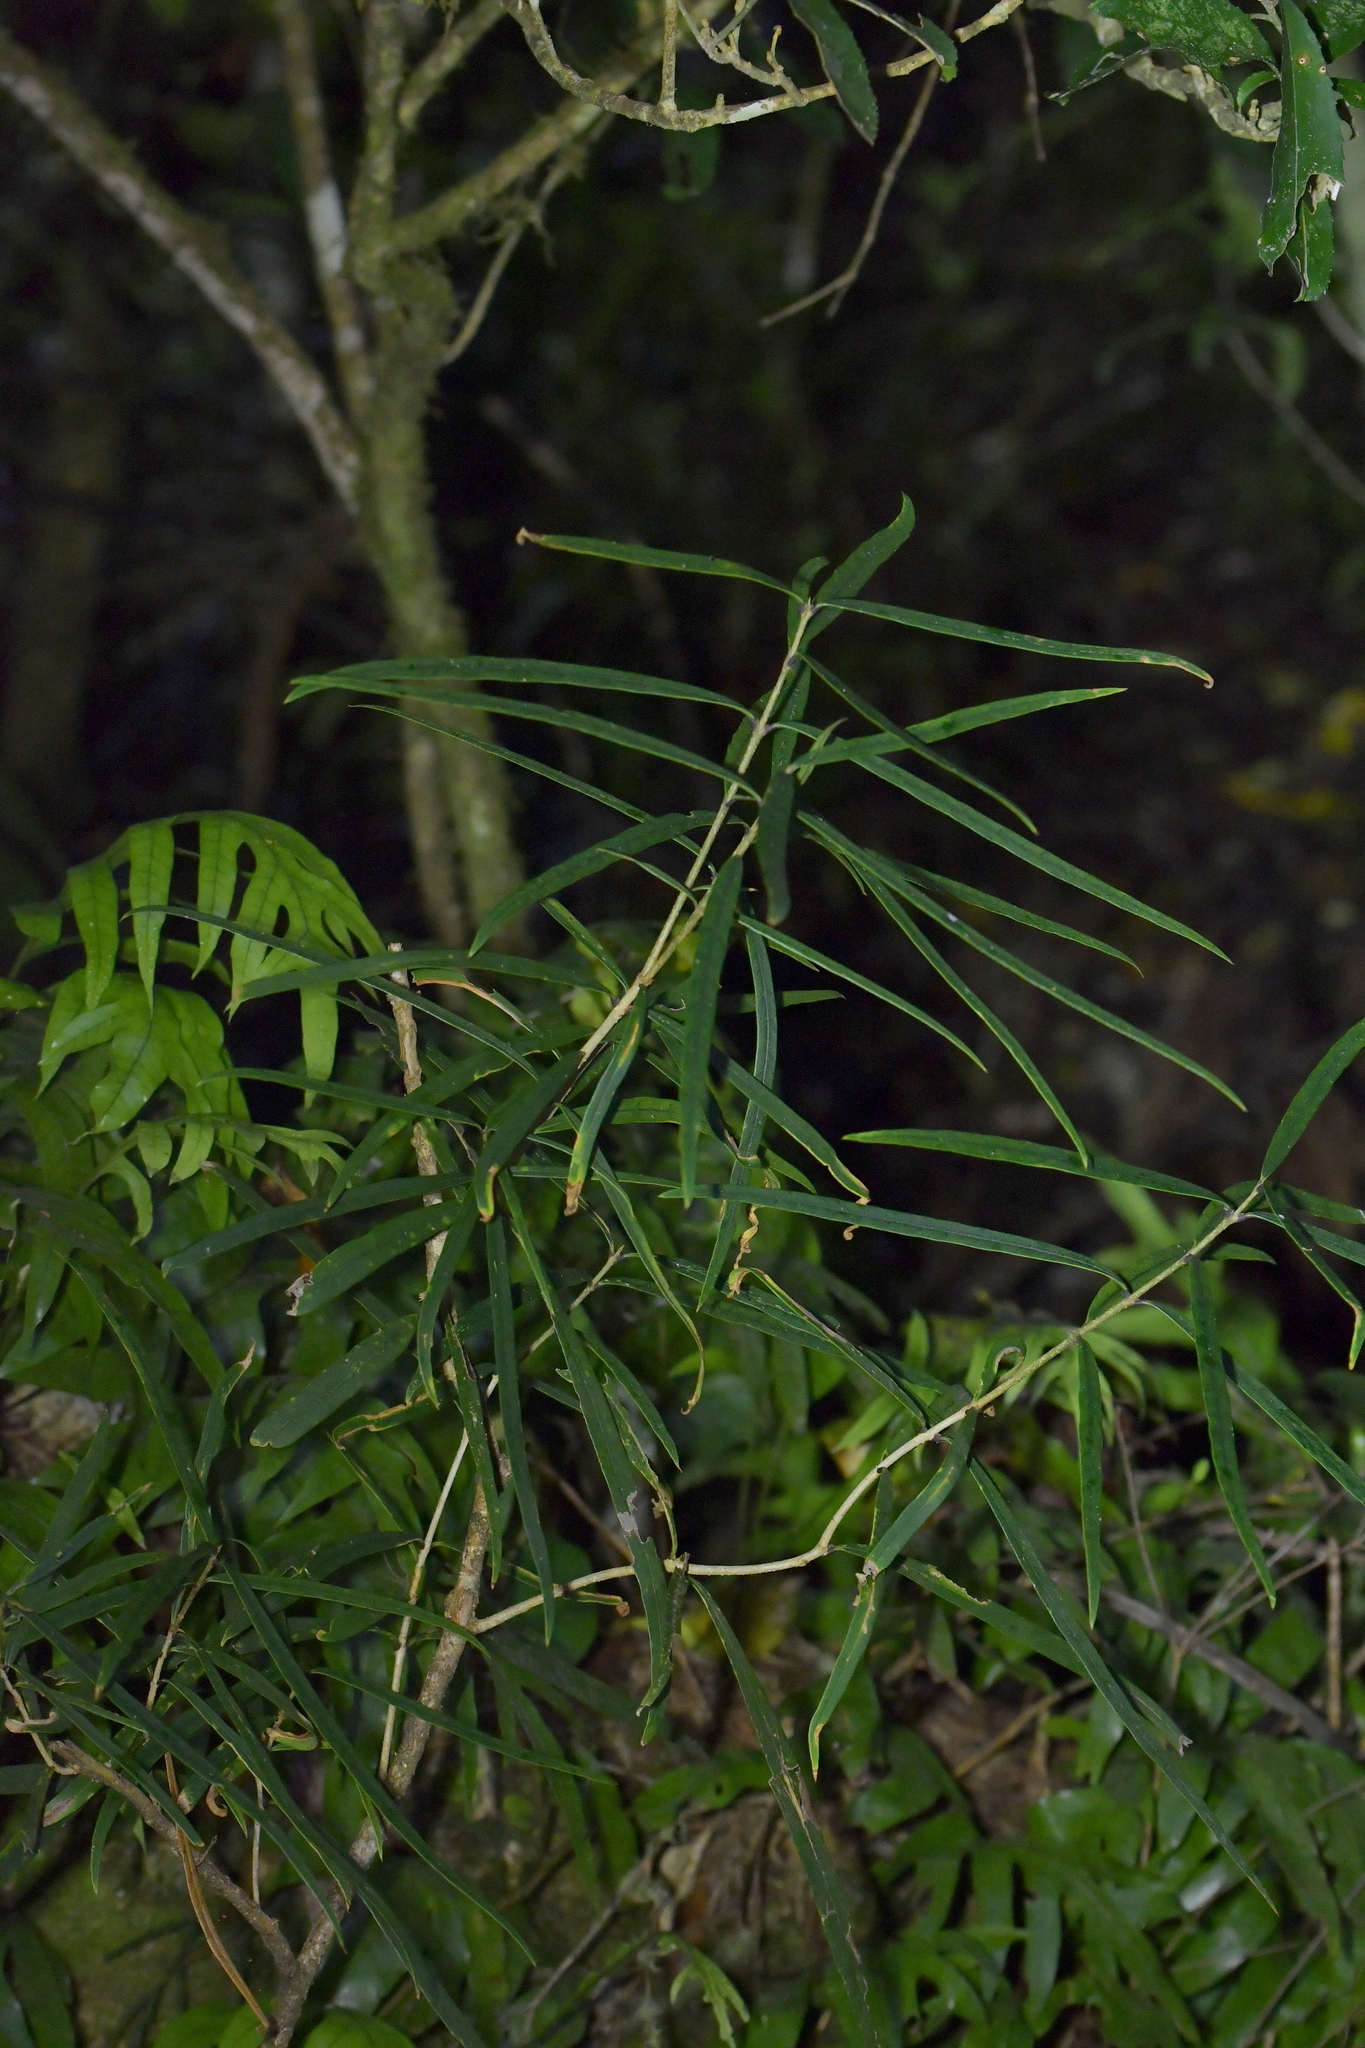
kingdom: Plantae
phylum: Tracheophyta
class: Magnoliopsida
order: Lamiales
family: Oleaceae
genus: Nestegis
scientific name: Nestegis cunninghamii
